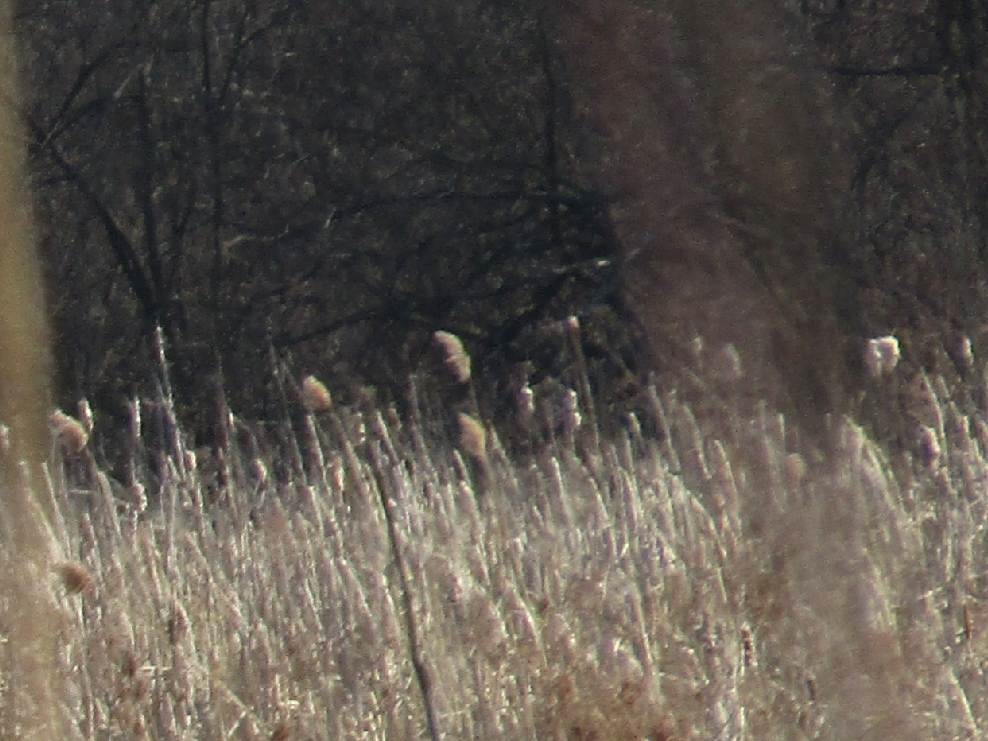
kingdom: Plantae
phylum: Tracheophyta
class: Liliopsida
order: Poales
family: Poaceae
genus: Phragmites
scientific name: Phragmites australis
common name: Common reed
